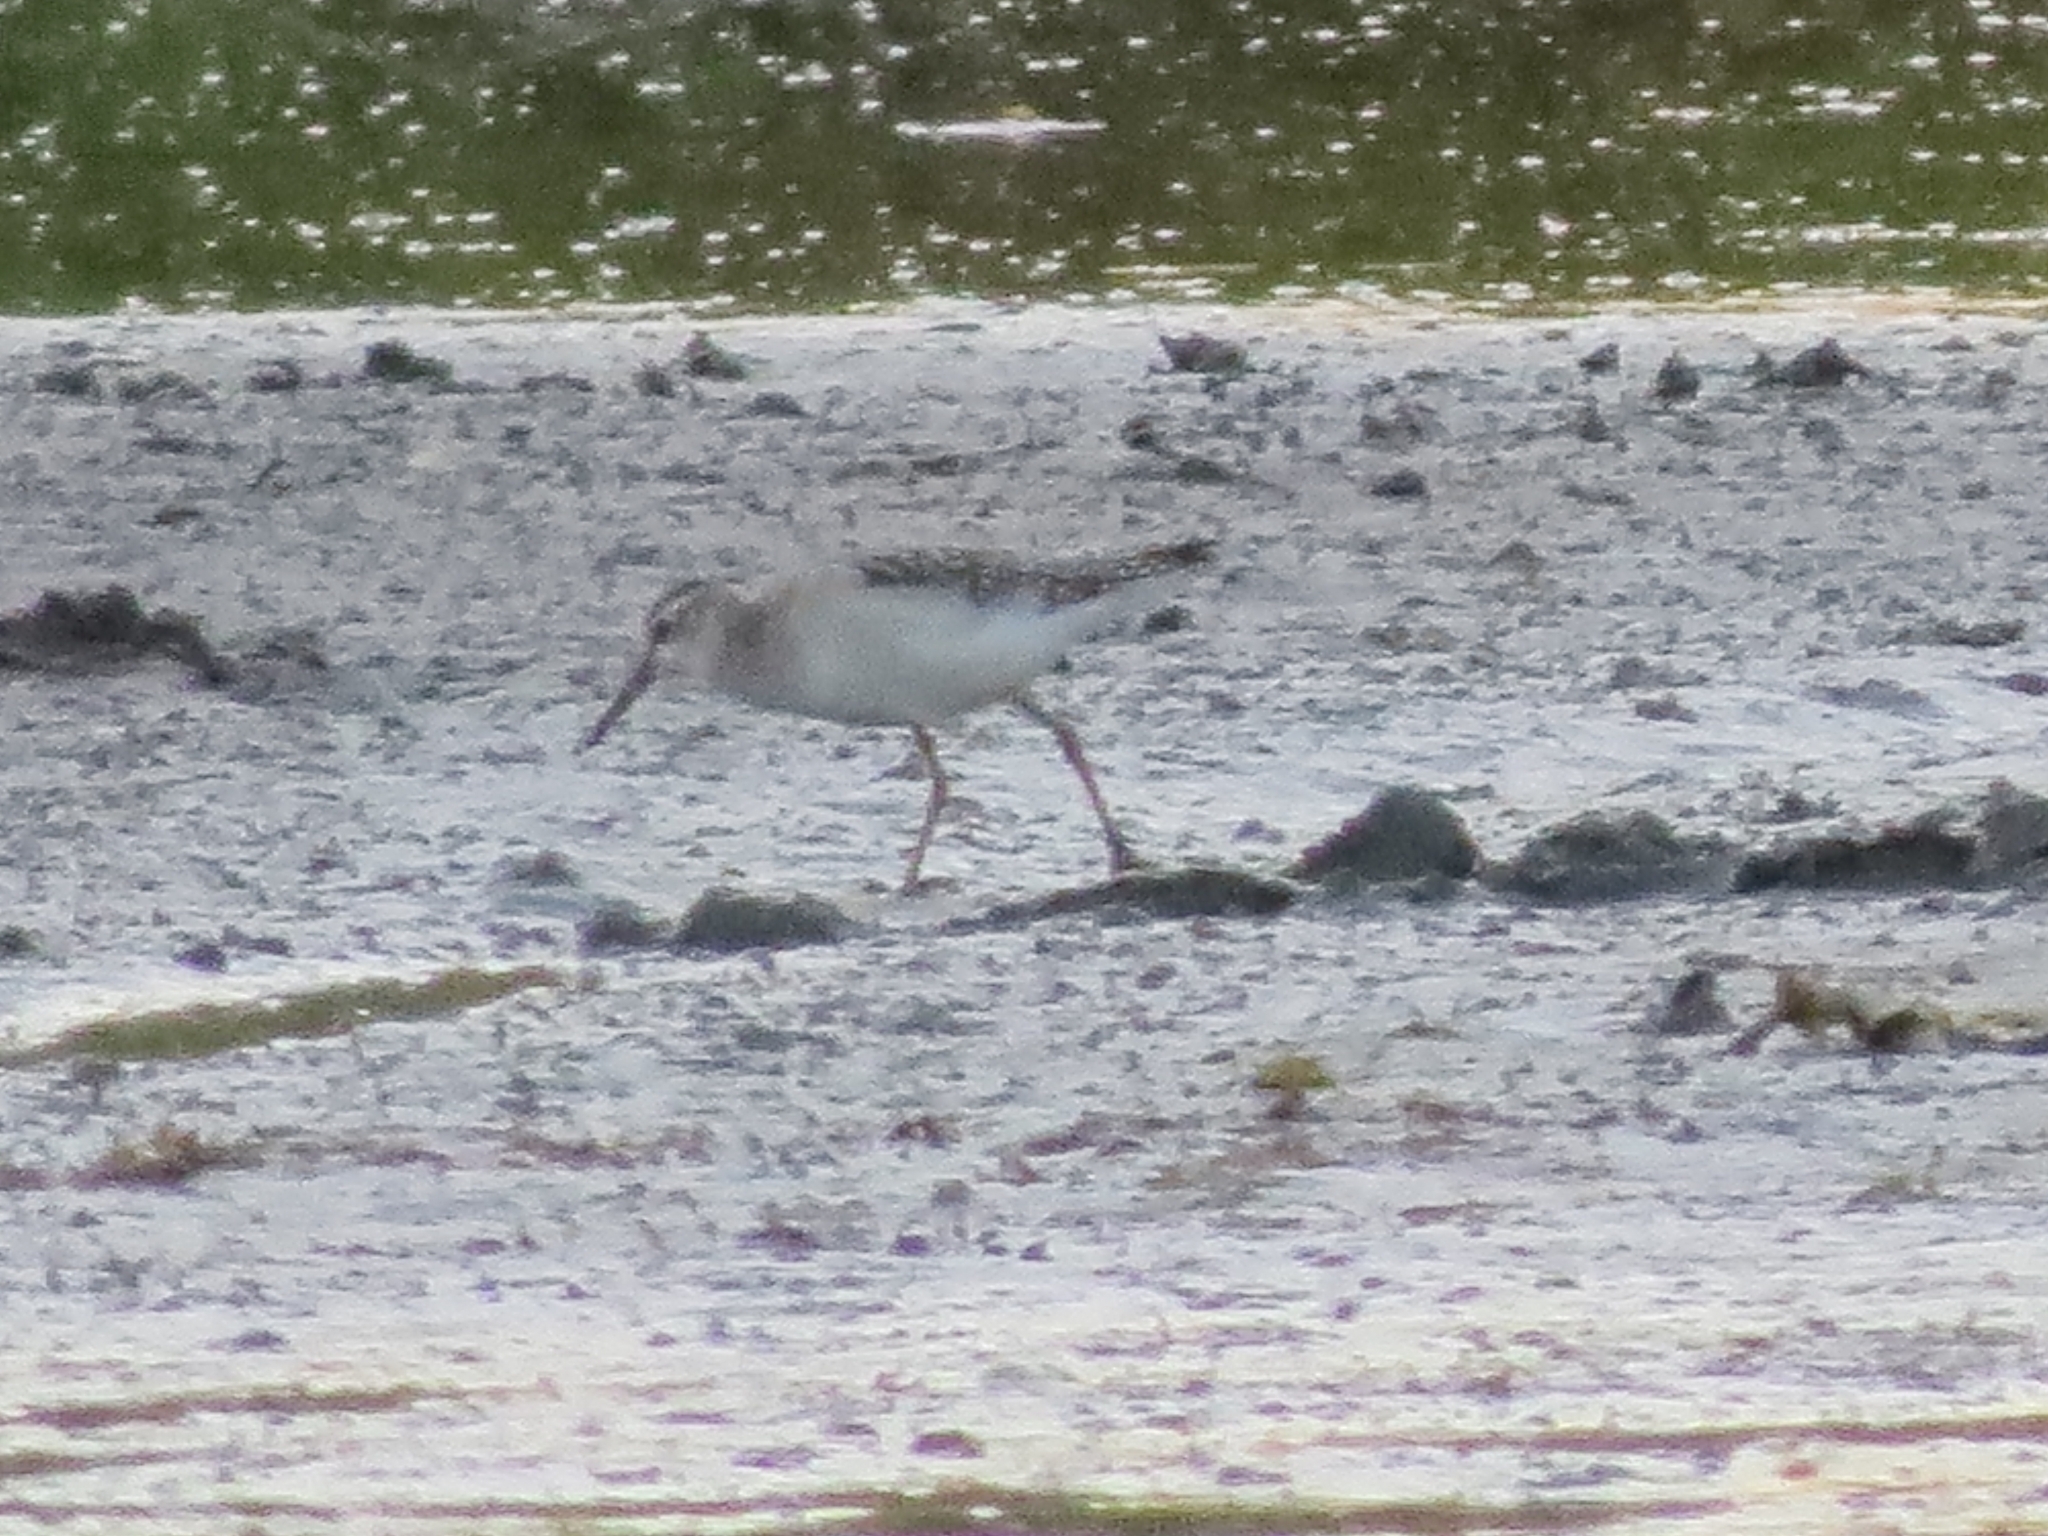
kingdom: Animalia
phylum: Chordata
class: Aves
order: Charadriiformes
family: Scolopacidae
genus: Tringa
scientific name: Tringa glareola
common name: Wood sandpiper
